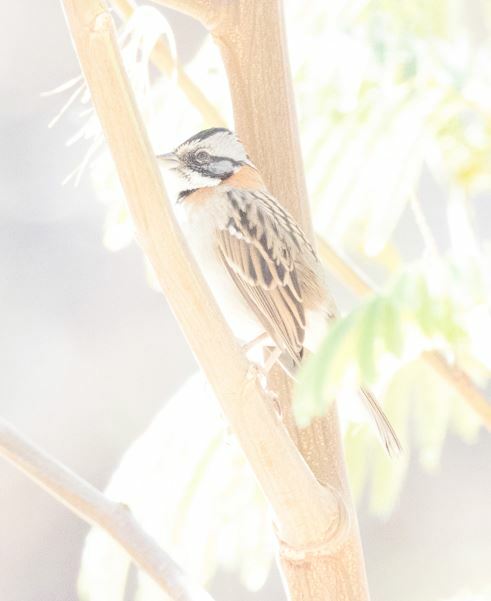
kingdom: Animalia
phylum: Chordata
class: Aves
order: Passeriformes
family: Passerellidae
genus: Zonotrichia
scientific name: Zonotrichia capensis
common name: Rufous-collared sparrow
